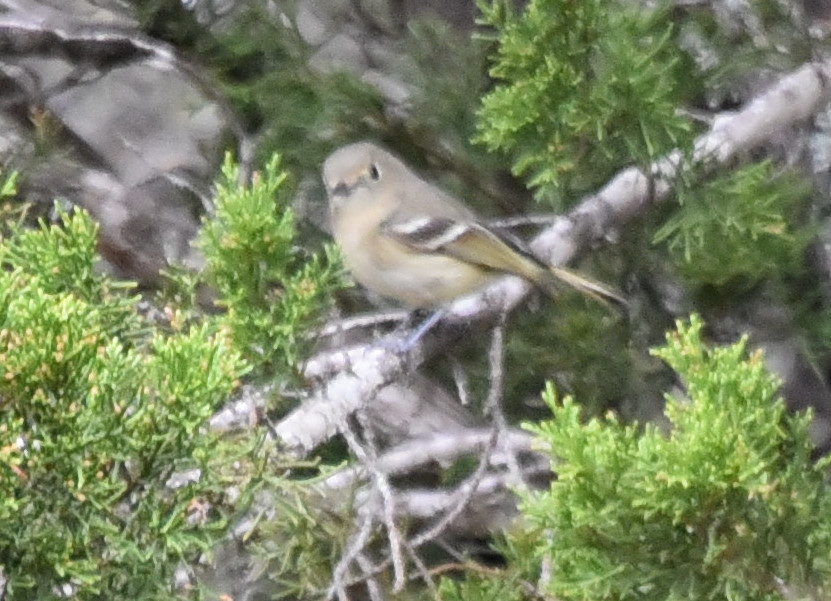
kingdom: Animalia
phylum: Chordata
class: Aves
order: Passeriformes
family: Regulidae
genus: Regulus
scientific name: Regulus calendula
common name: Ruby-crowned kinglet
